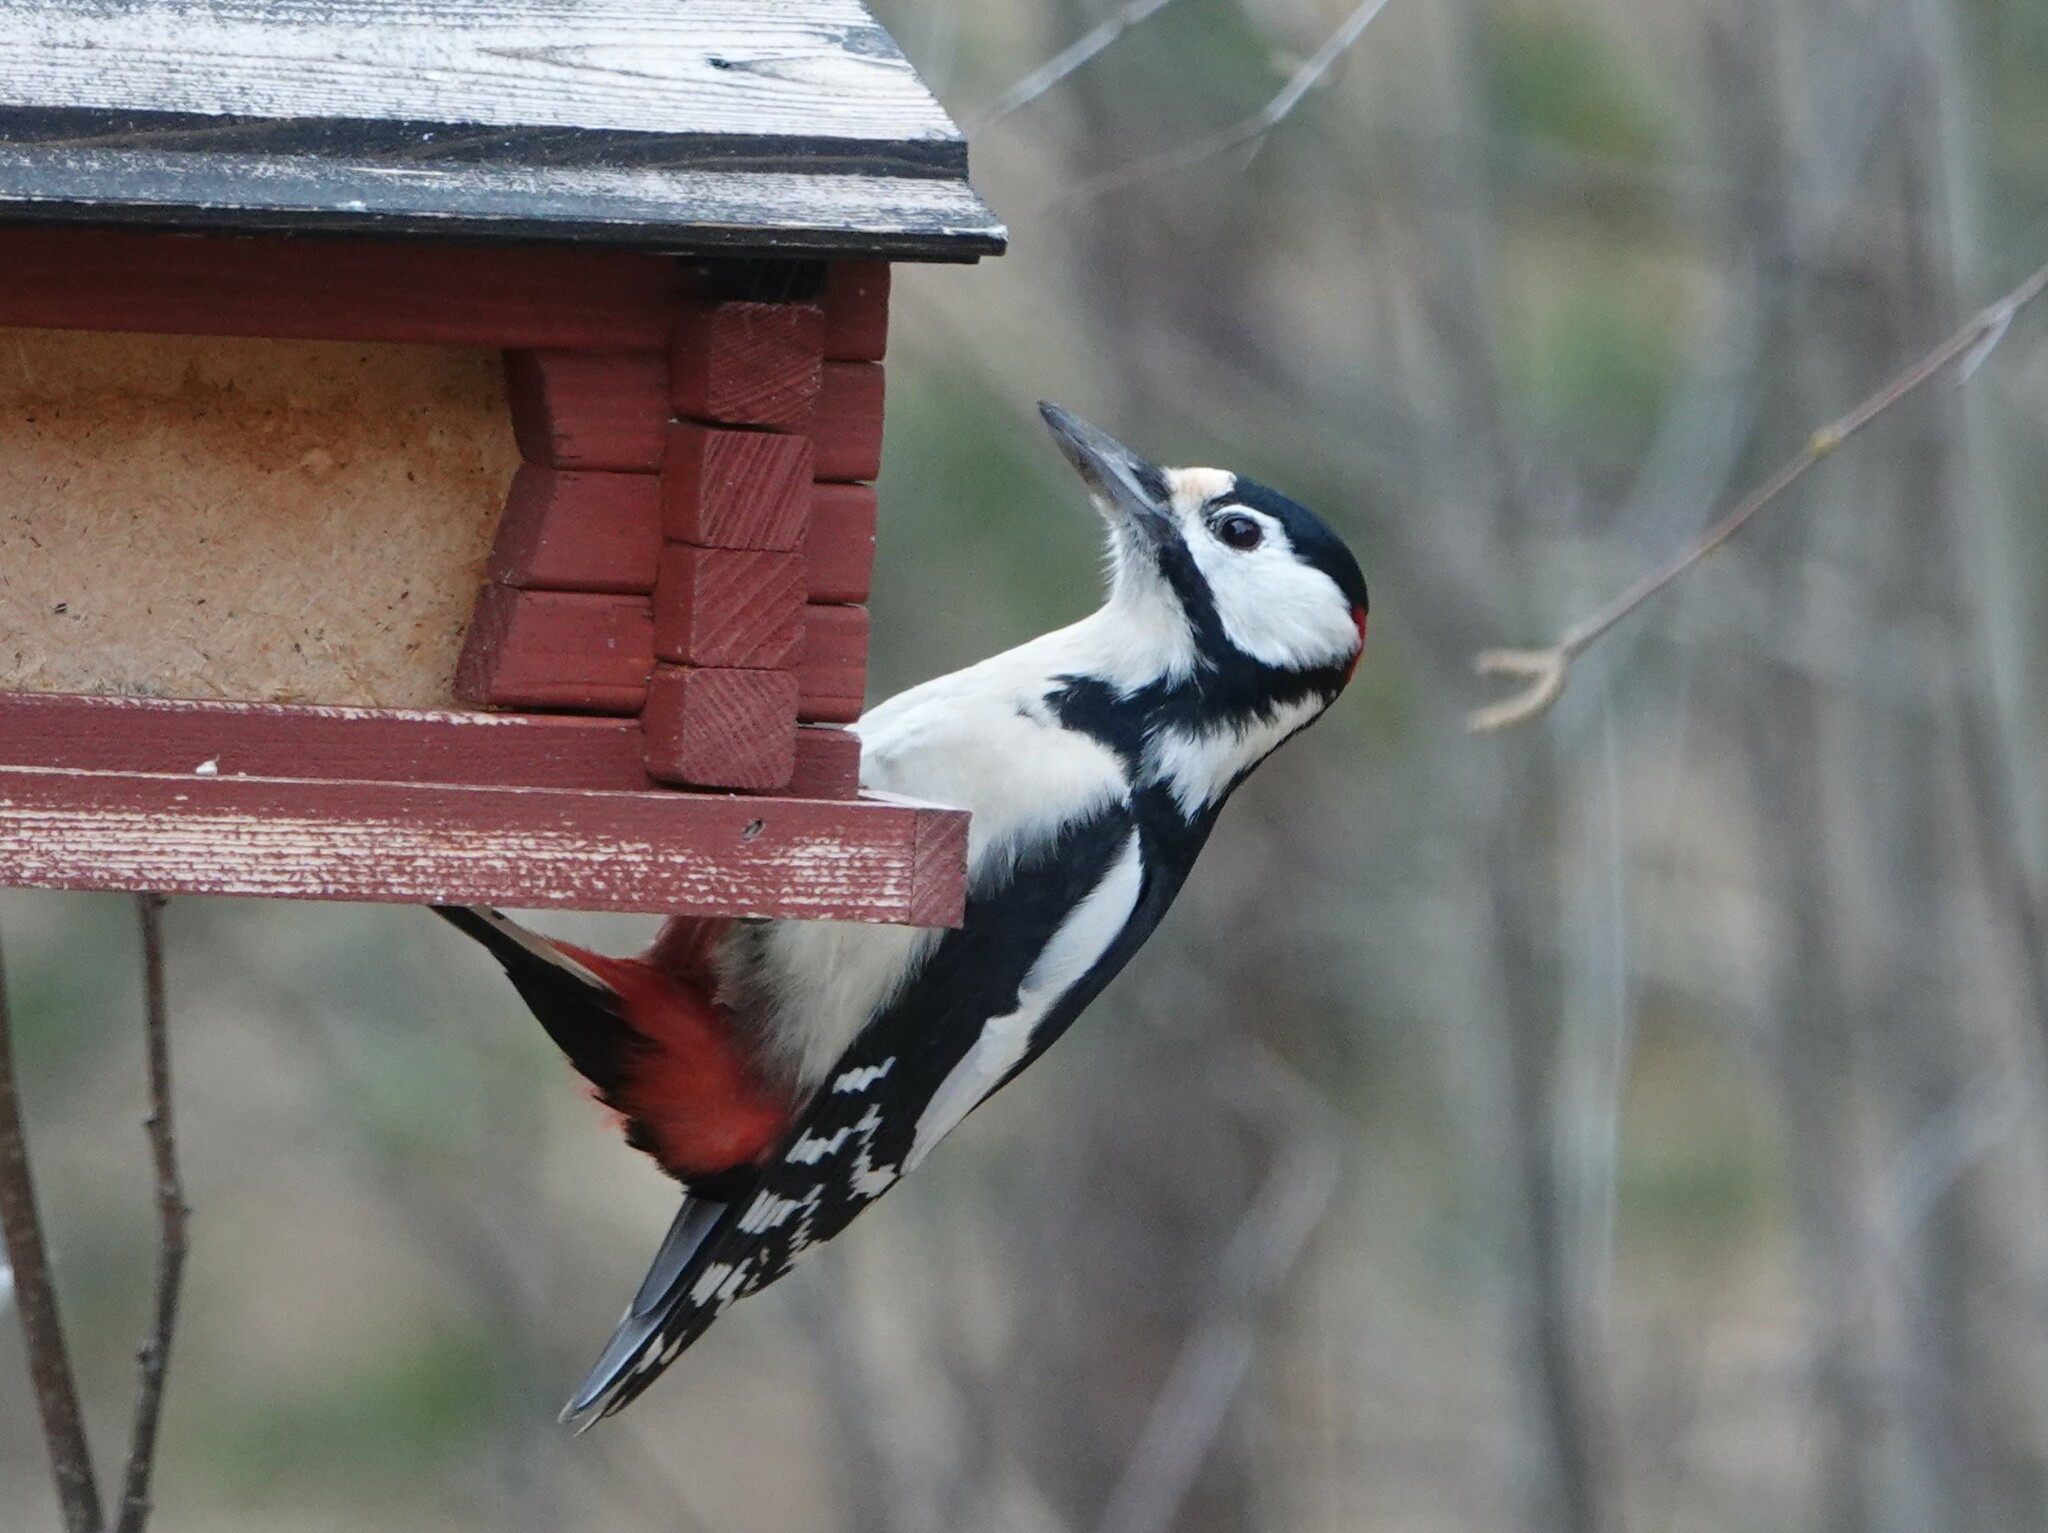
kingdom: Animalia
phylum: Chordata
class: Aves
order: Piciformes
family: Picidae
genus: Dendrocopos
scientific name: Dendrocopos major
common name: Great spotted woodpecker
